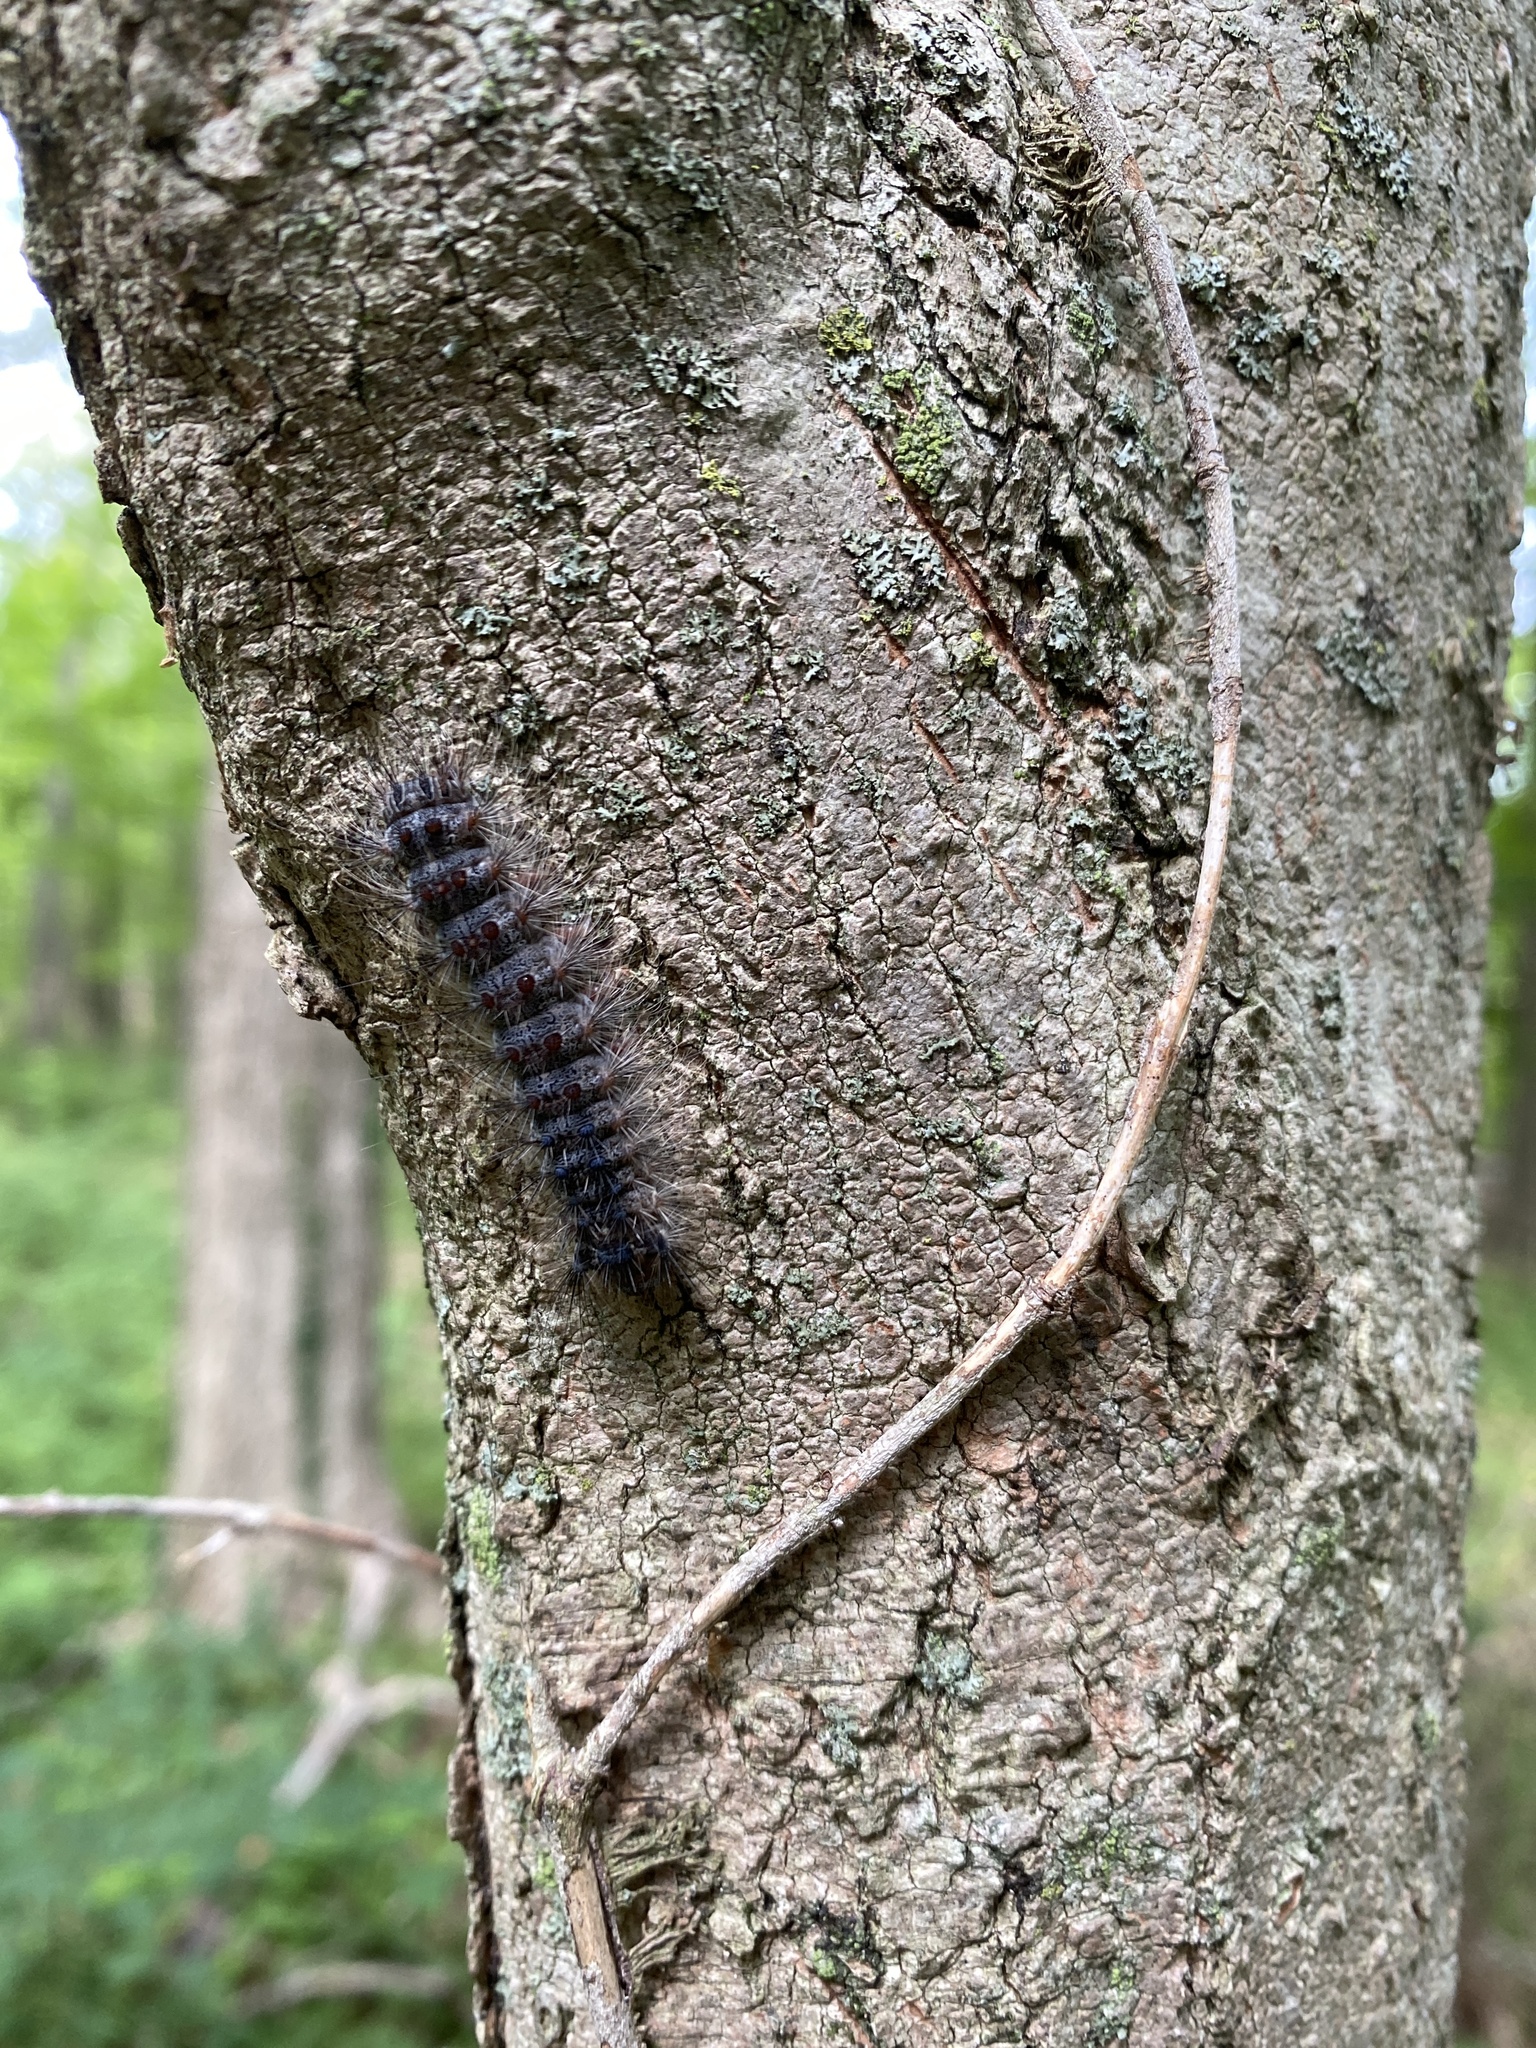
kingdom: Animalia
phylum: Arthropoda
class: Insecta
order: Lepidoptera
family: Erebidae
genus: Lymantria
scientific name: Lymantria dispar
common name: Gypsy moth
